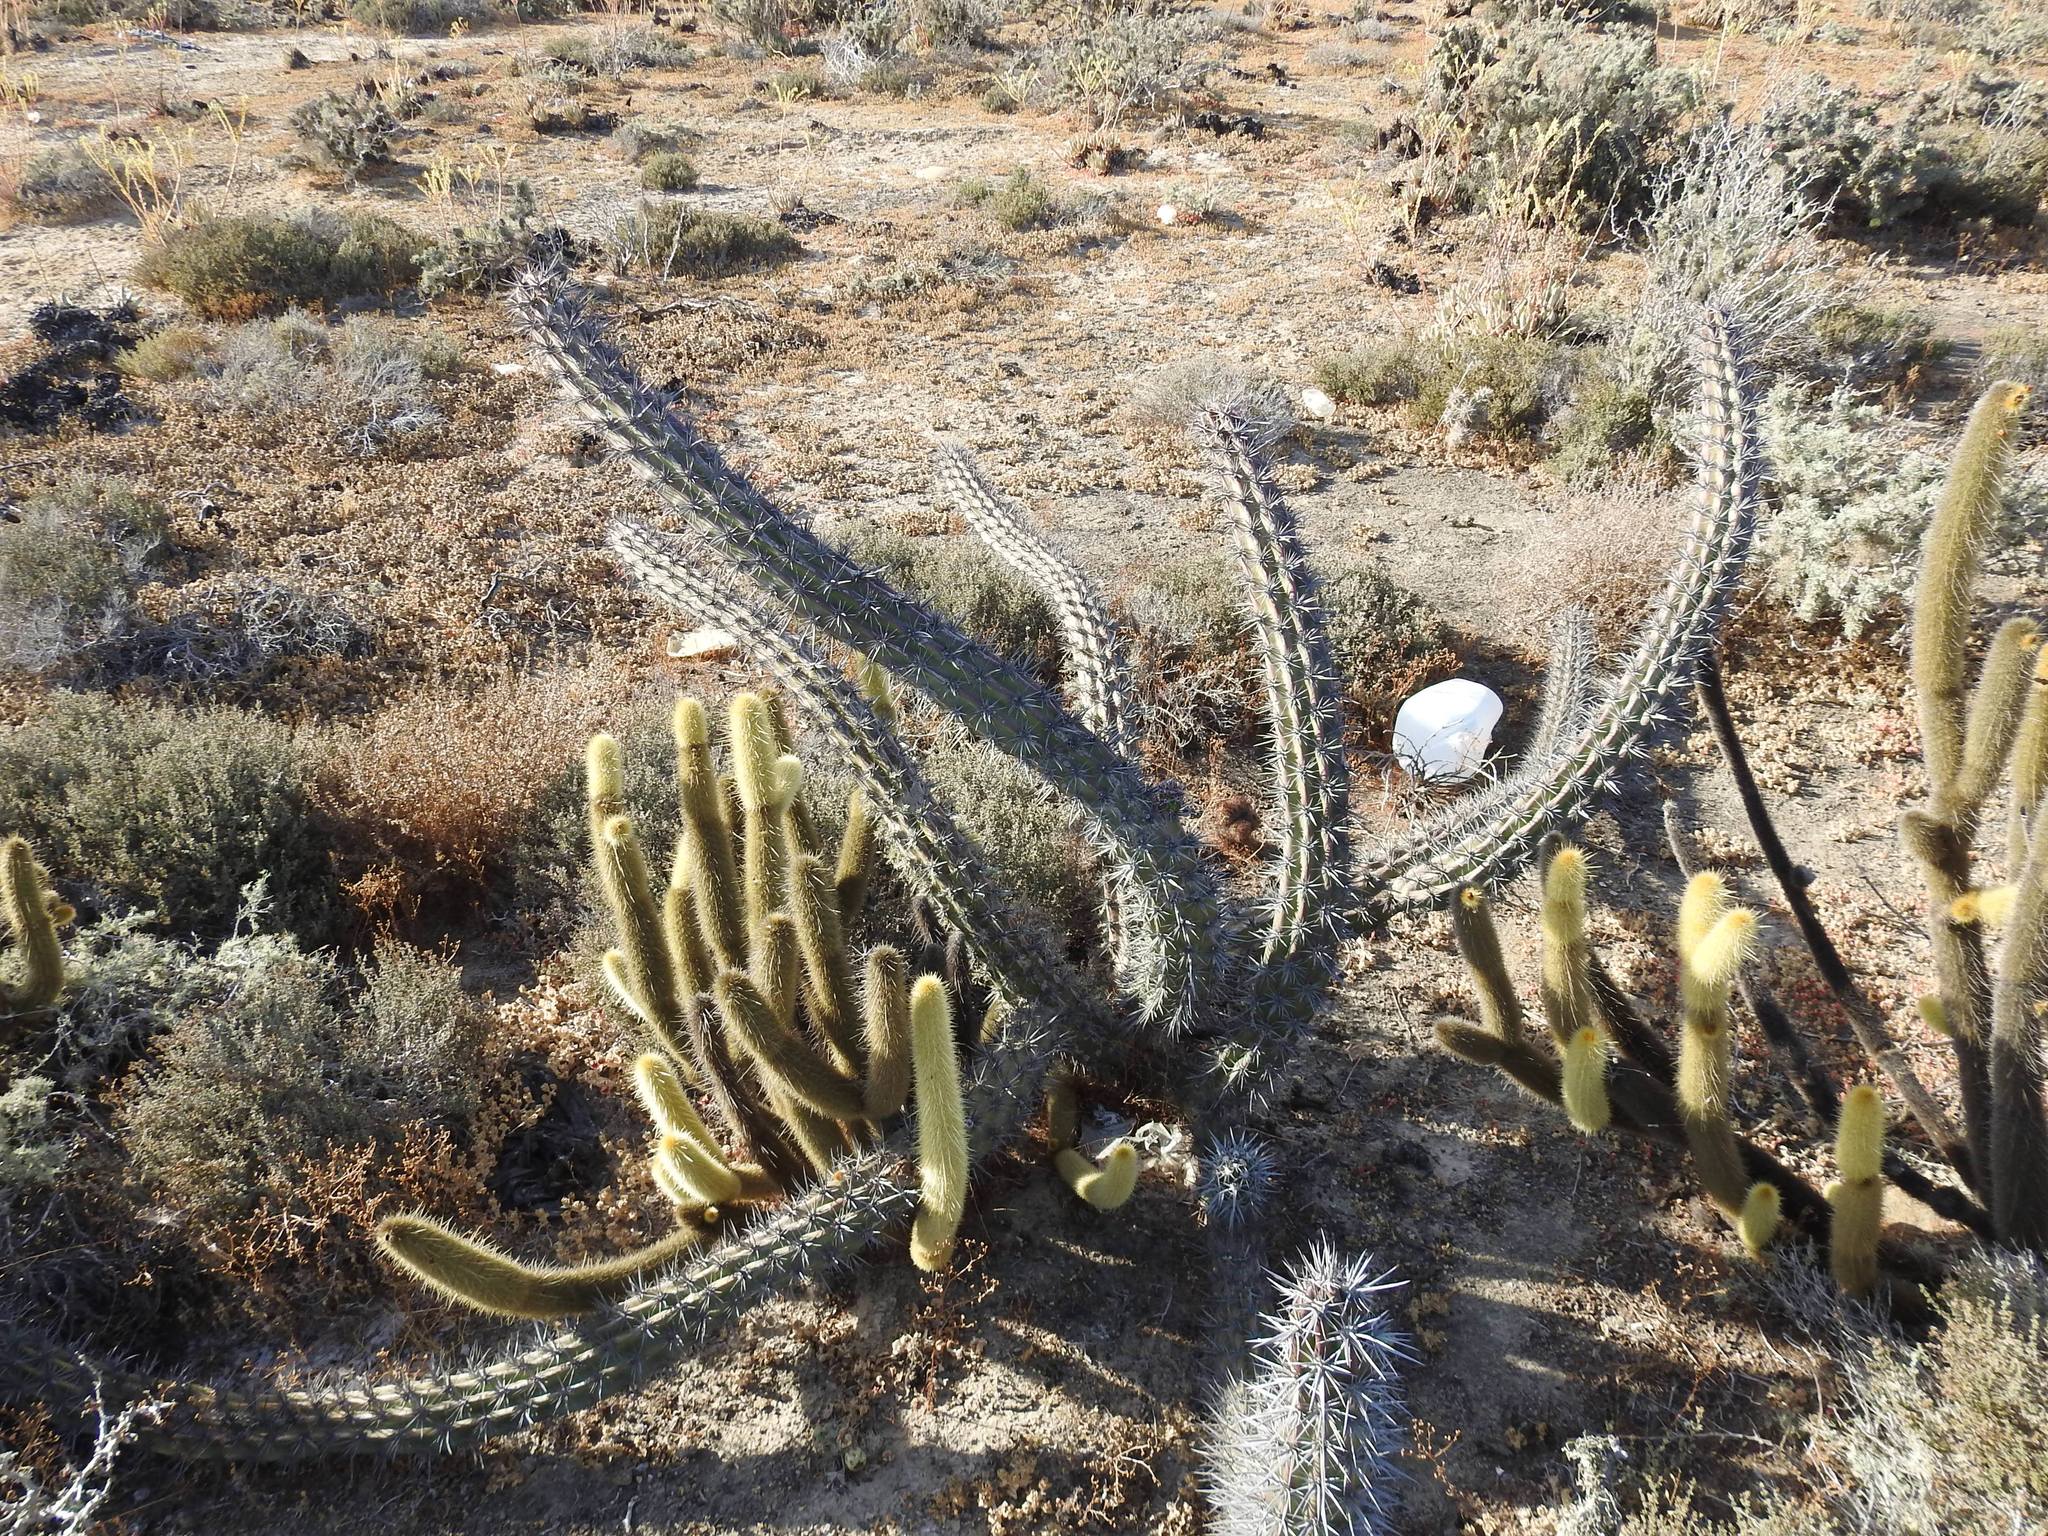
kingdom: Plantae
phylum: Tracheophyta
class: Magnoliopsida
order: Caryophyllales
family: Cactaceae
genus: Stenocereus
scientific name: Stenocereus gummosus
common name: Dagger cactus
